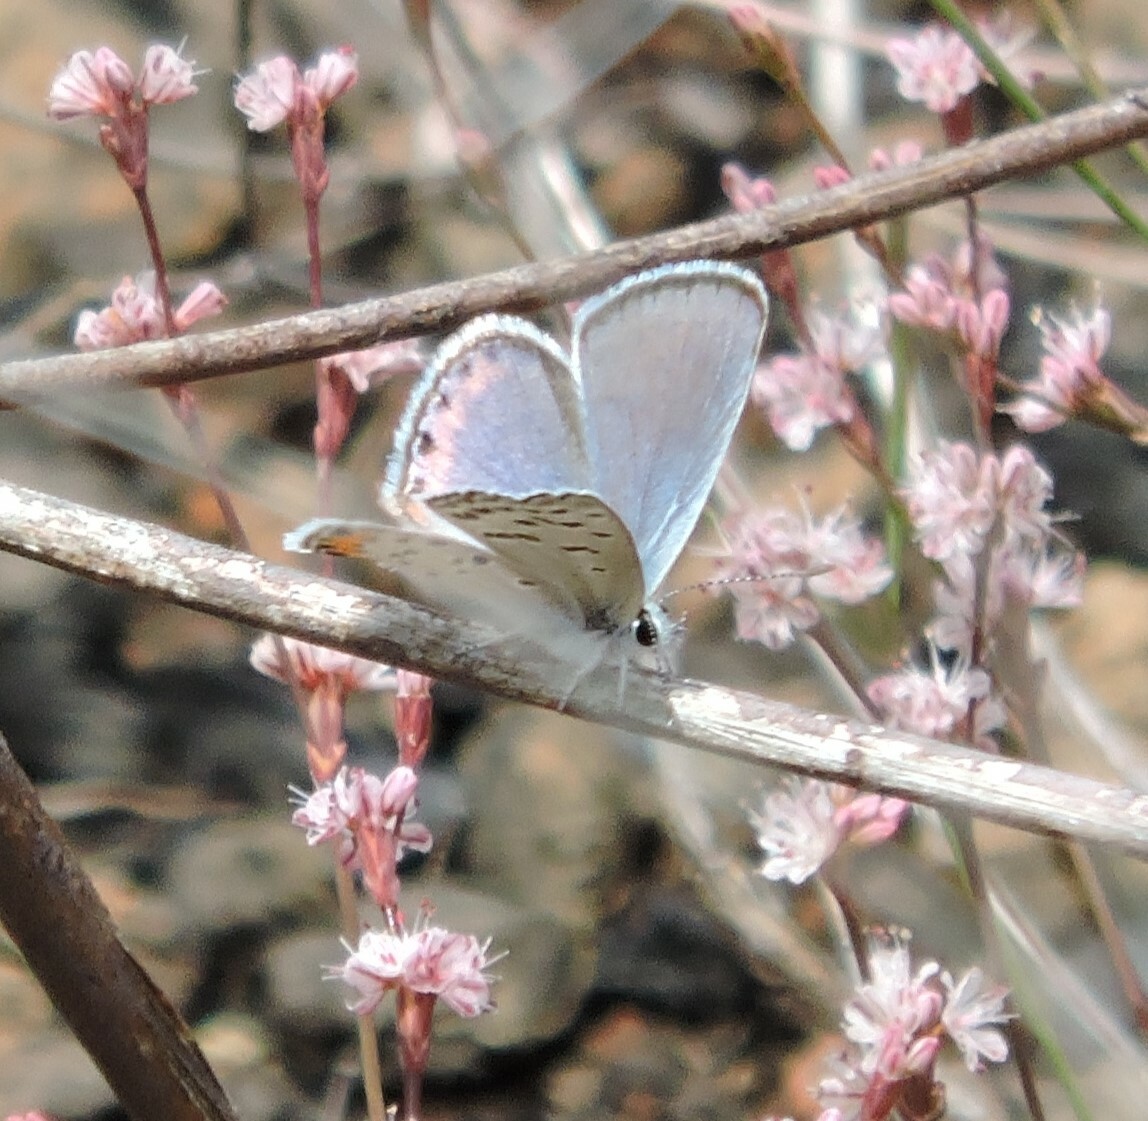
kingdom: Animalia
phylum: Arthropoda
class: Insecta
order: Lepidoptera
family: Lycaenidae
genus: Icaricia
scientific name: Icaricia acmon
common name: Acmon blue
